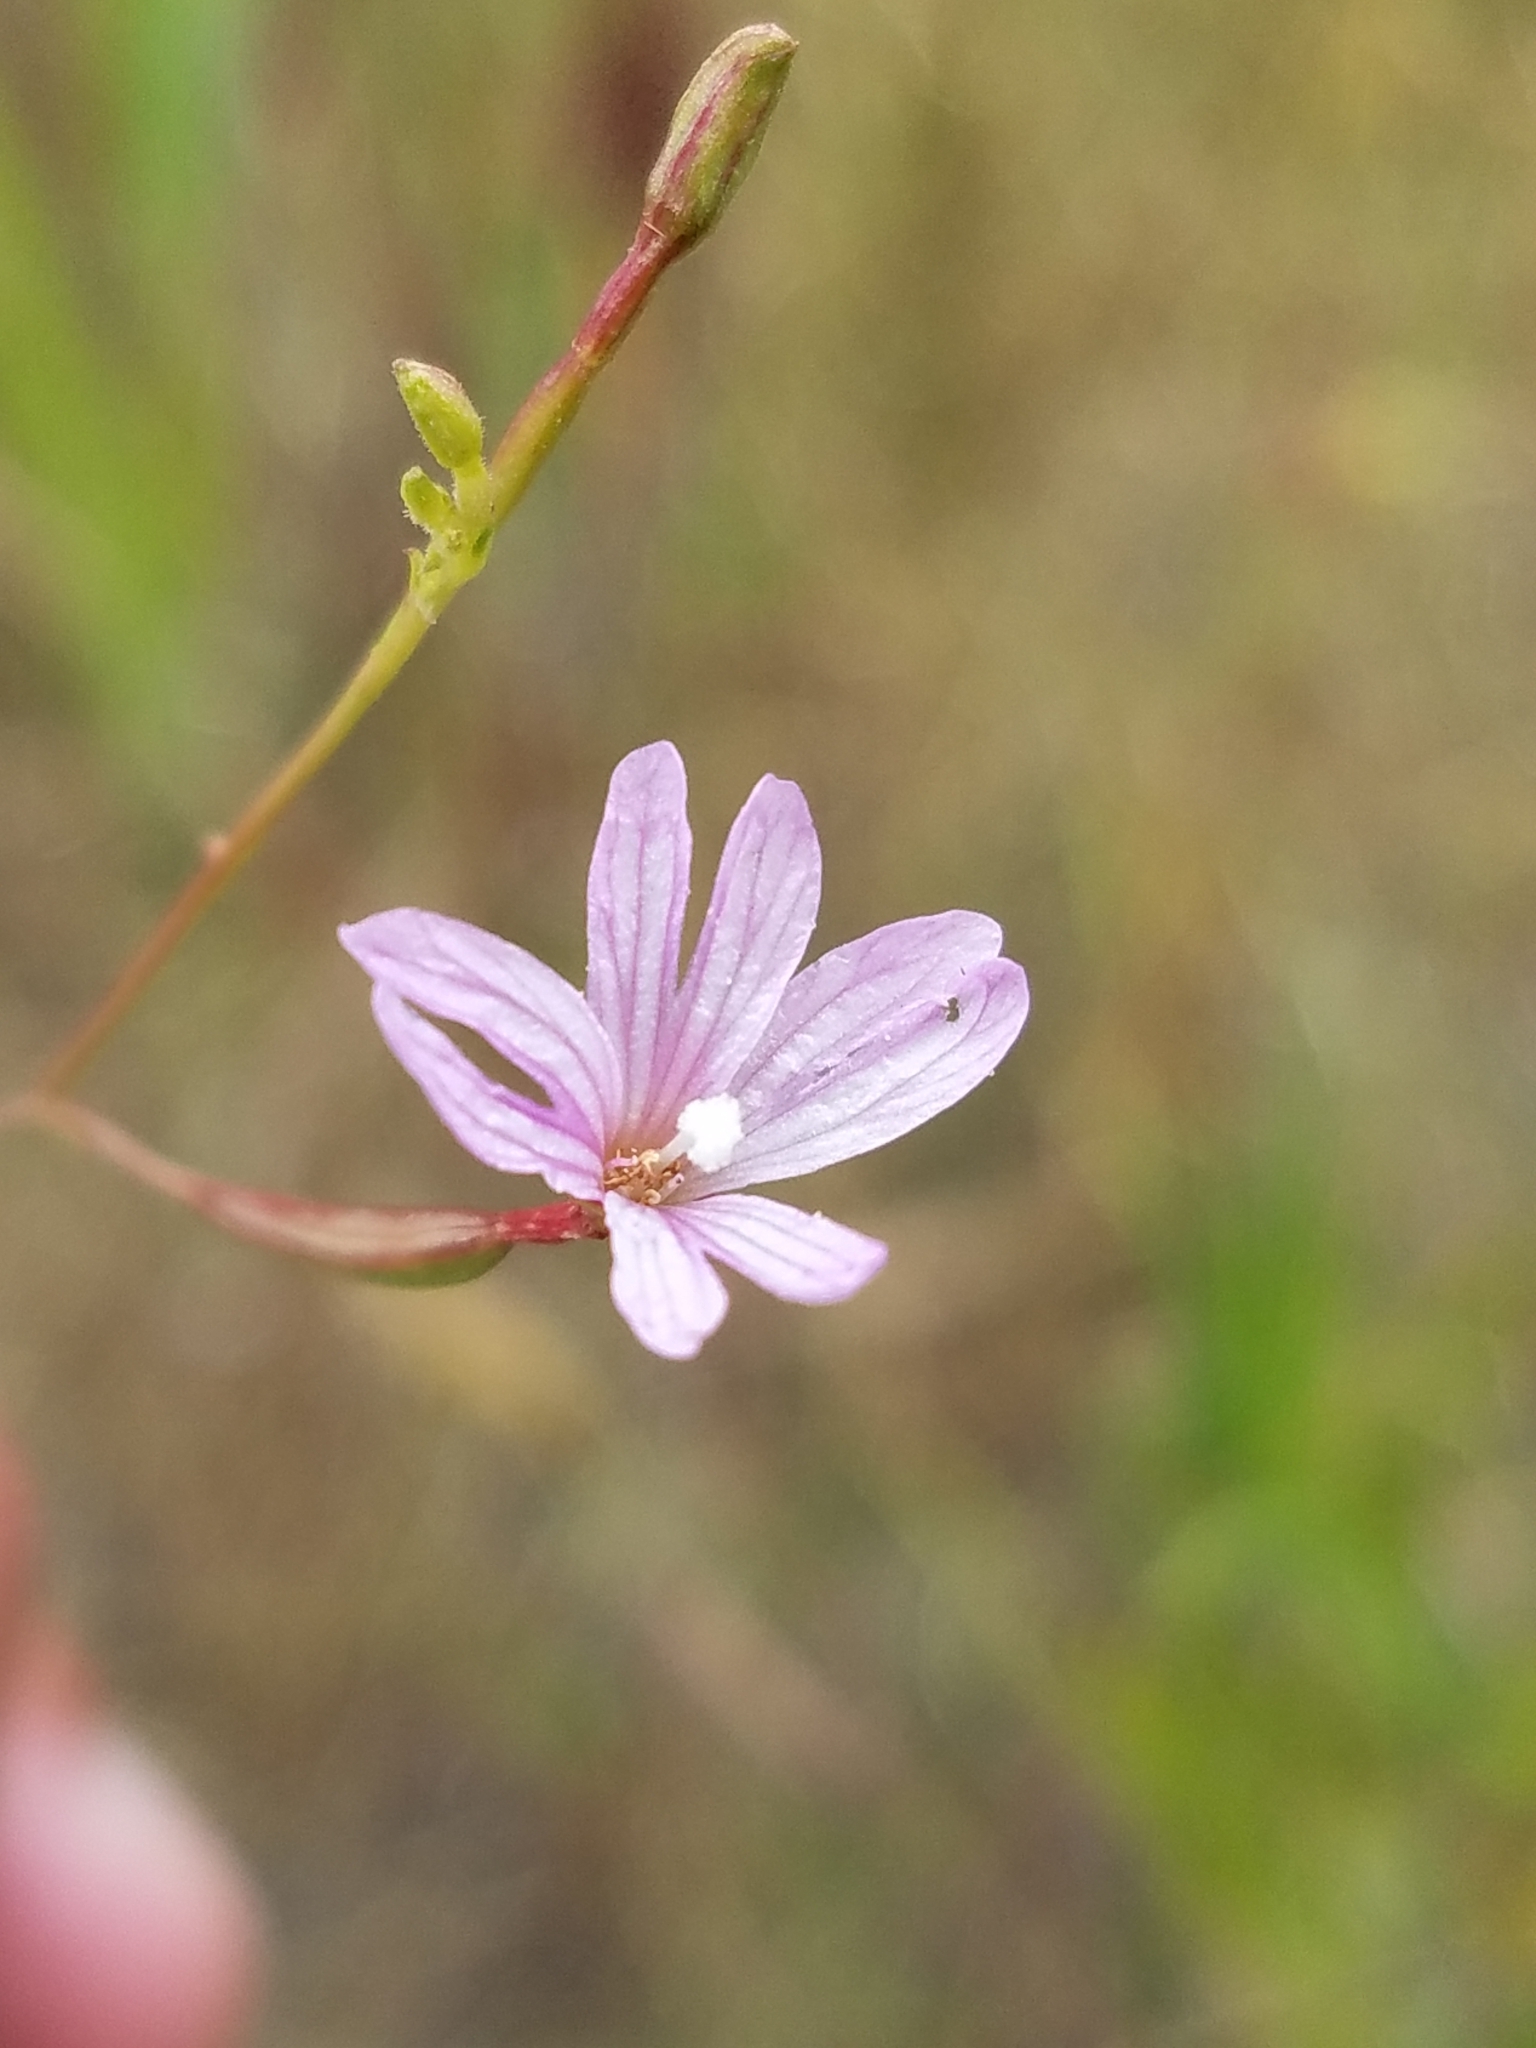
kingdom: Plantae
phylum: Tracheophyta
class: Magnoliopsida
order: Myrtales
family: Onagraceae
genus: Epilobium
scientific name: Epilobium brachycarpum
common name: Annual willowherb
